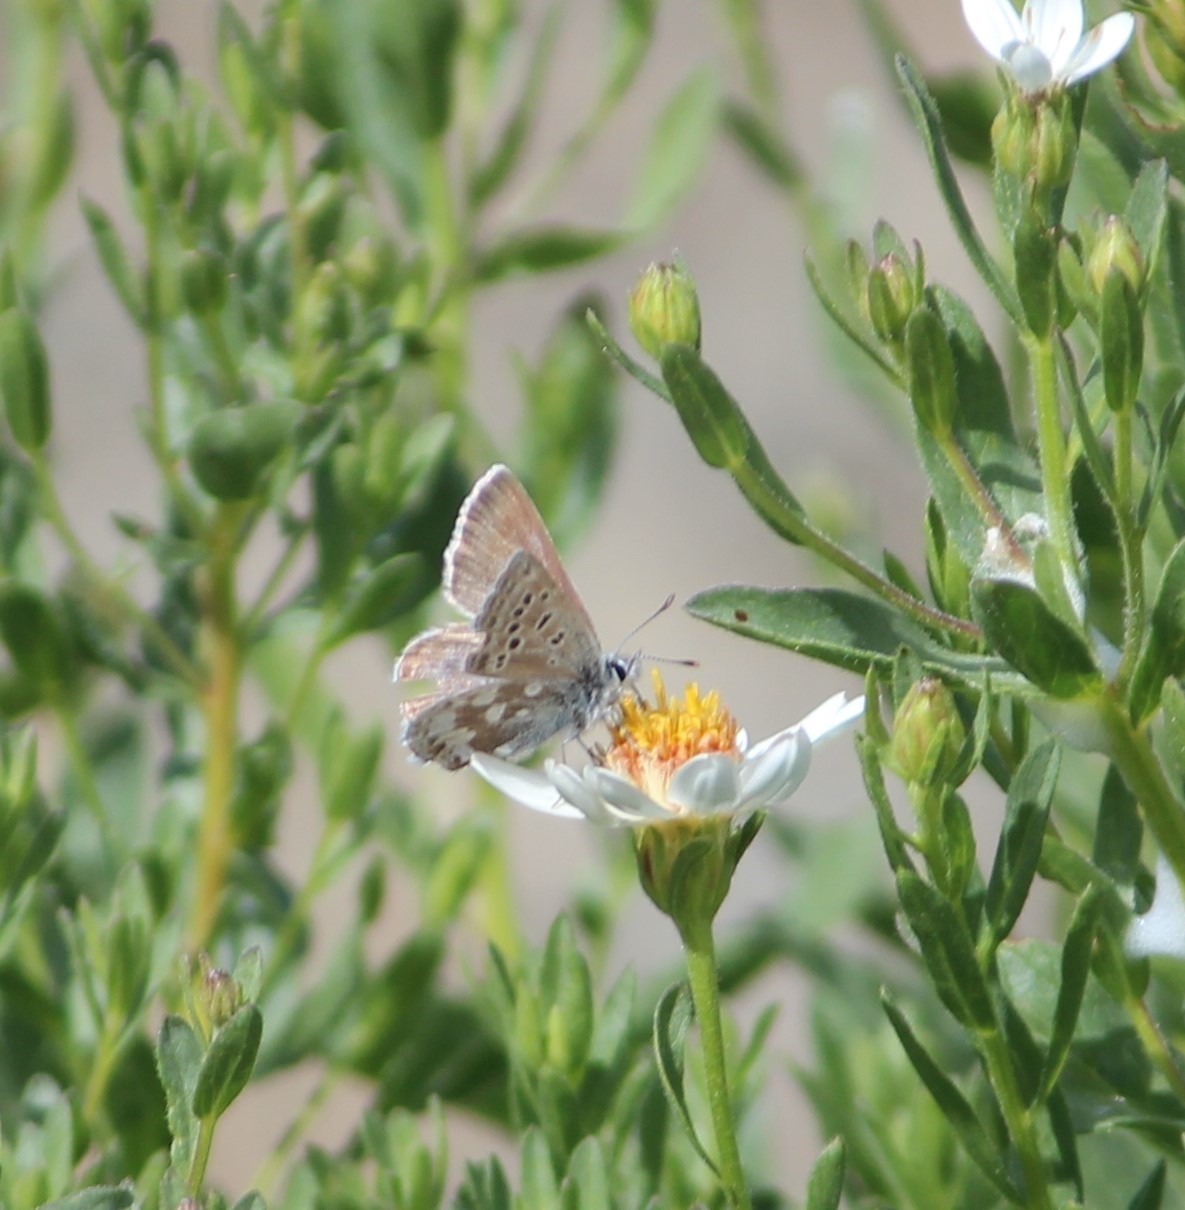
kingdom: Animalia
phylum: Arthropoda
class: Insecta
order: Lepidoptera
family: Lycaenidae
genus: Agriades
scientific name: Agriades glandon
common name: Glandon blue
